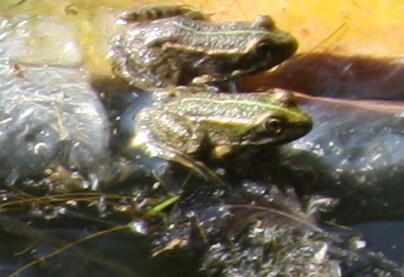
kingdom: Animalia
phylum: Chordata
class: Amphibia
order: Anura
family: Ranidae
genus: Pelophylax
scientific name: Pelophylax ridibundus
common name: Marsh frog
